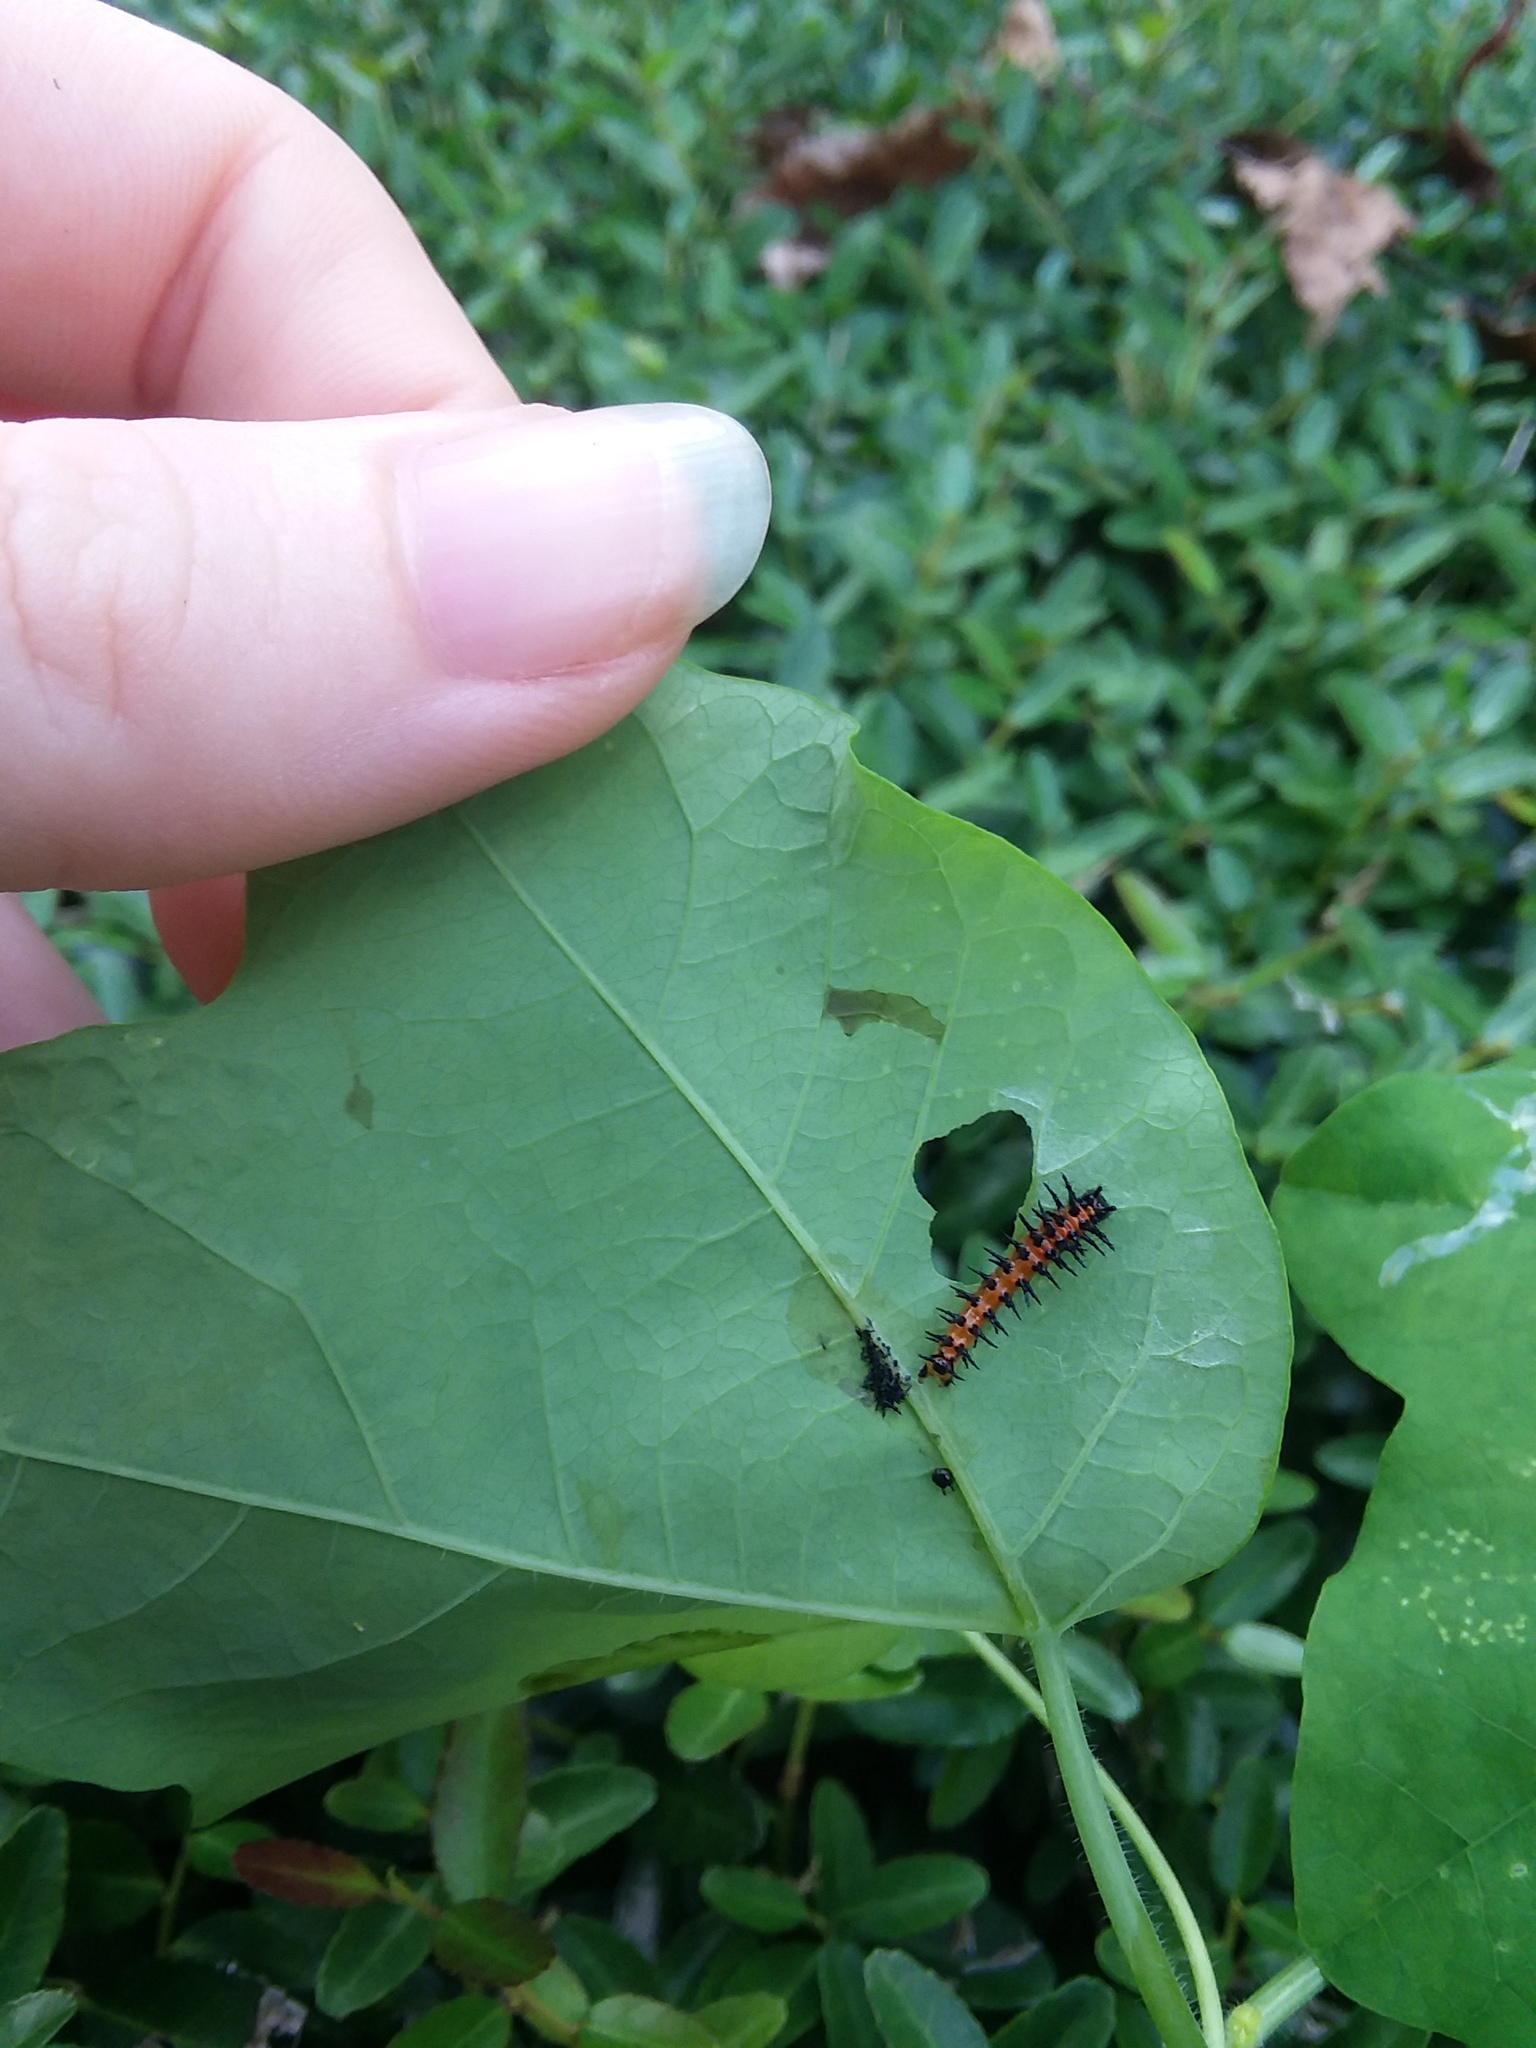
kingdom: Animalia
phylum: Arthropoda
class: Insecta
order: Lepidoptera
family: Nymphalidae
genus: Dione
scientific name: Dione vanillae
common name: Gulf fritillary
